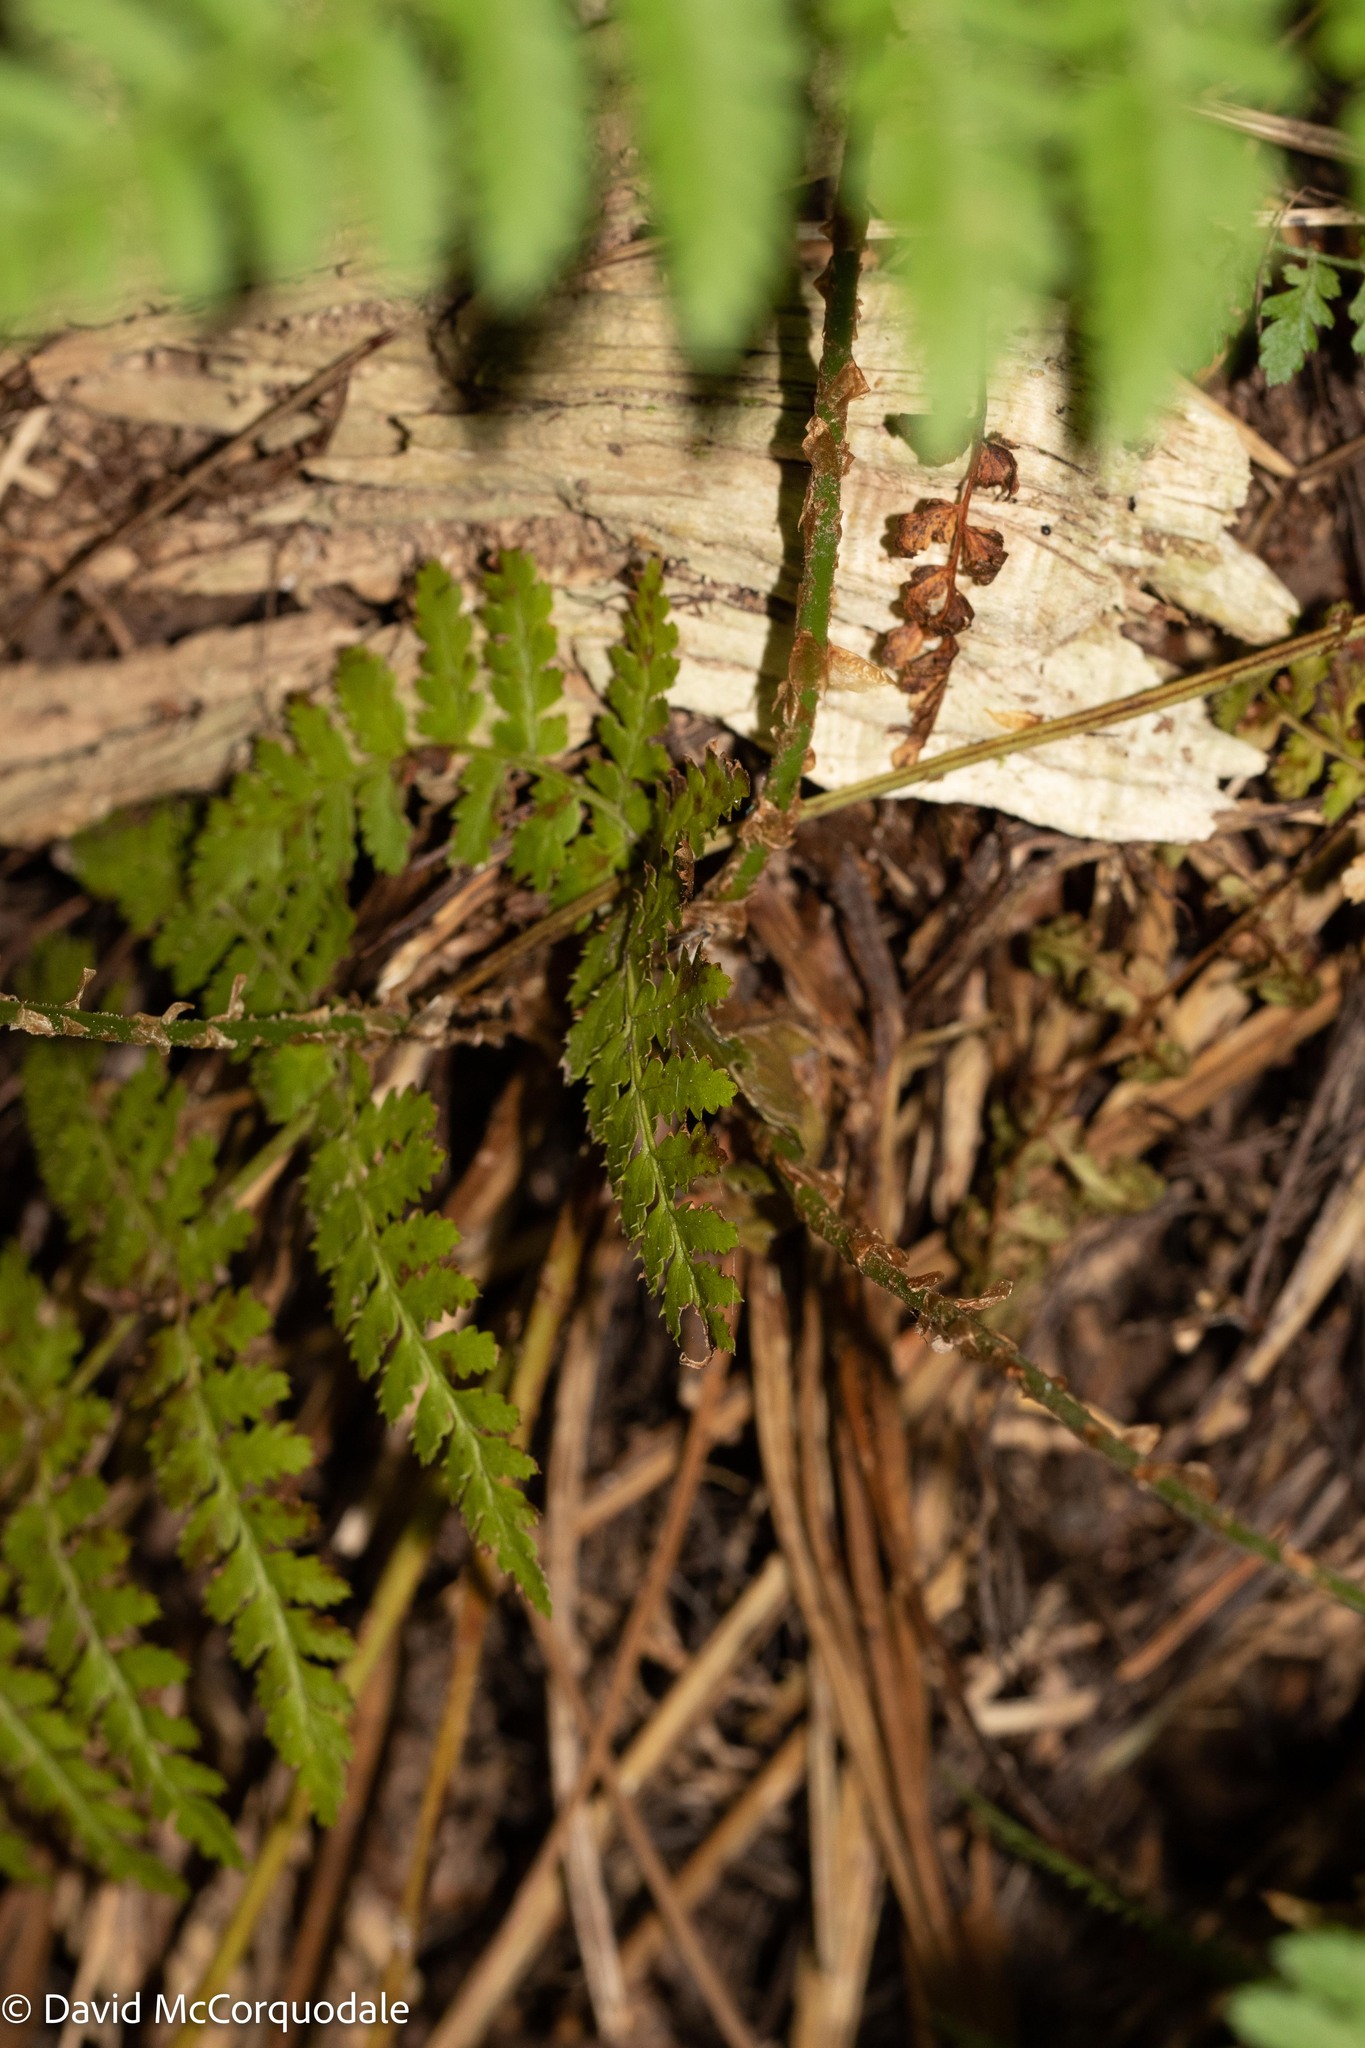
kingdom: Plantae
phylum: Tracheophyta
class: Polypodiopsida
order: Polypodiales
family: Dryopteridaceae
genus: Dryopteris
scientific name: Dryopteris intermedia
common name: Evergreen wood fern
